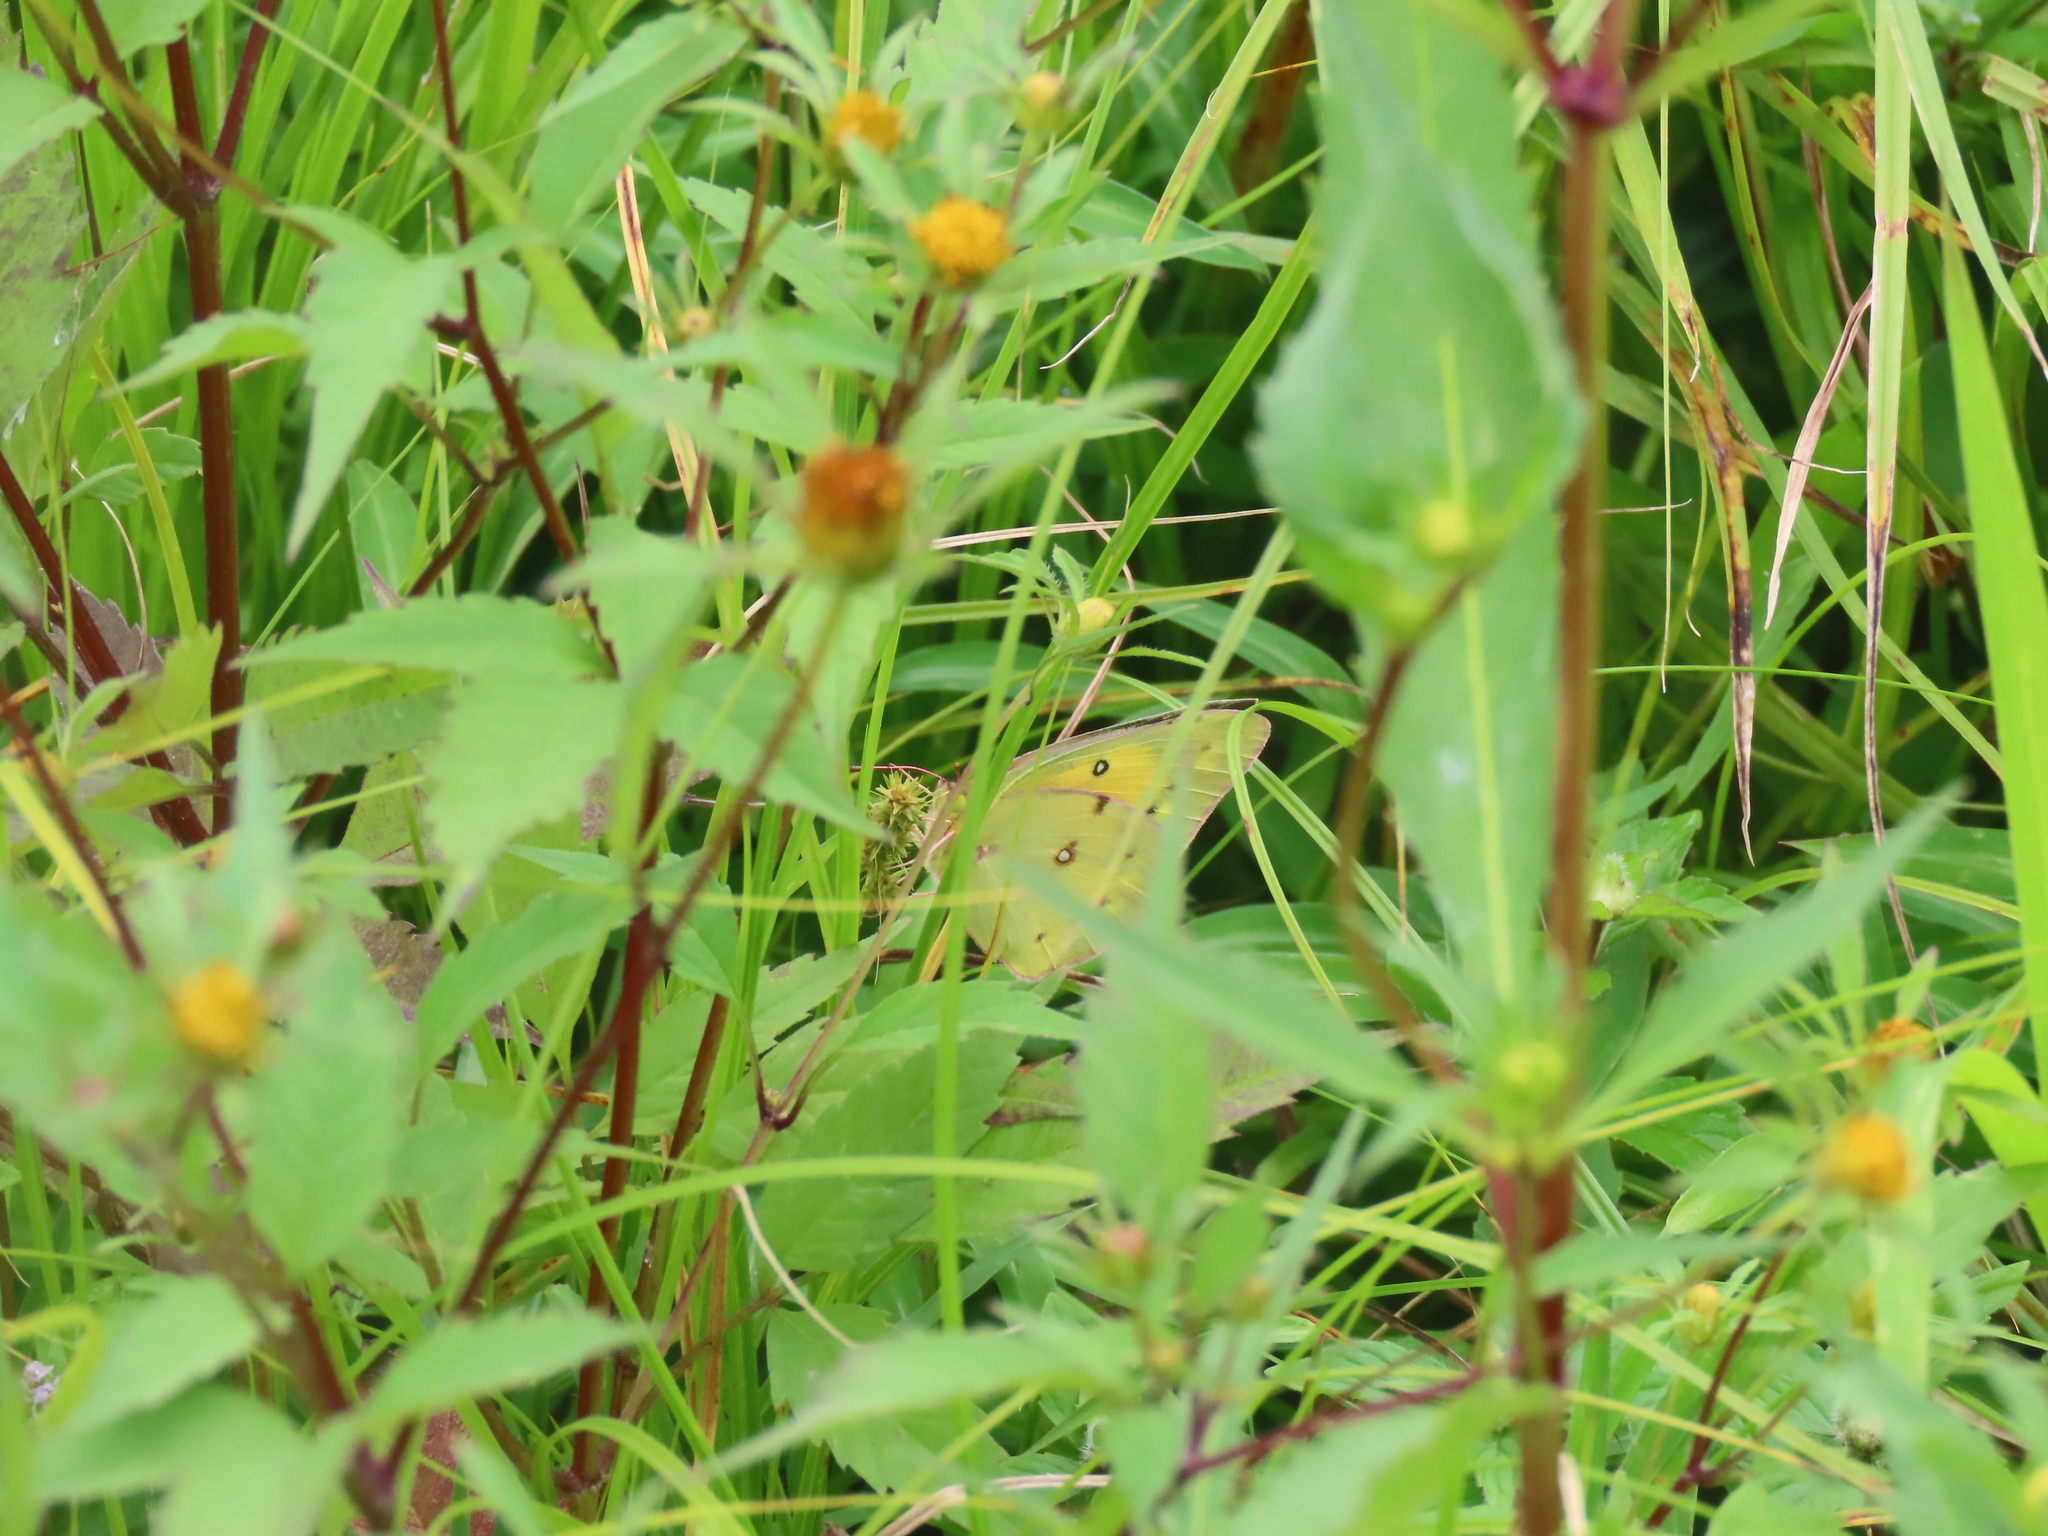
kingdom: Animalia
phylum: Arthropoda
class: Insecta
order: Lepidoptera
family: Pieridae
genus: Colias
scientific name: Colias eurytheme
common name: Alfalfa butterfly
